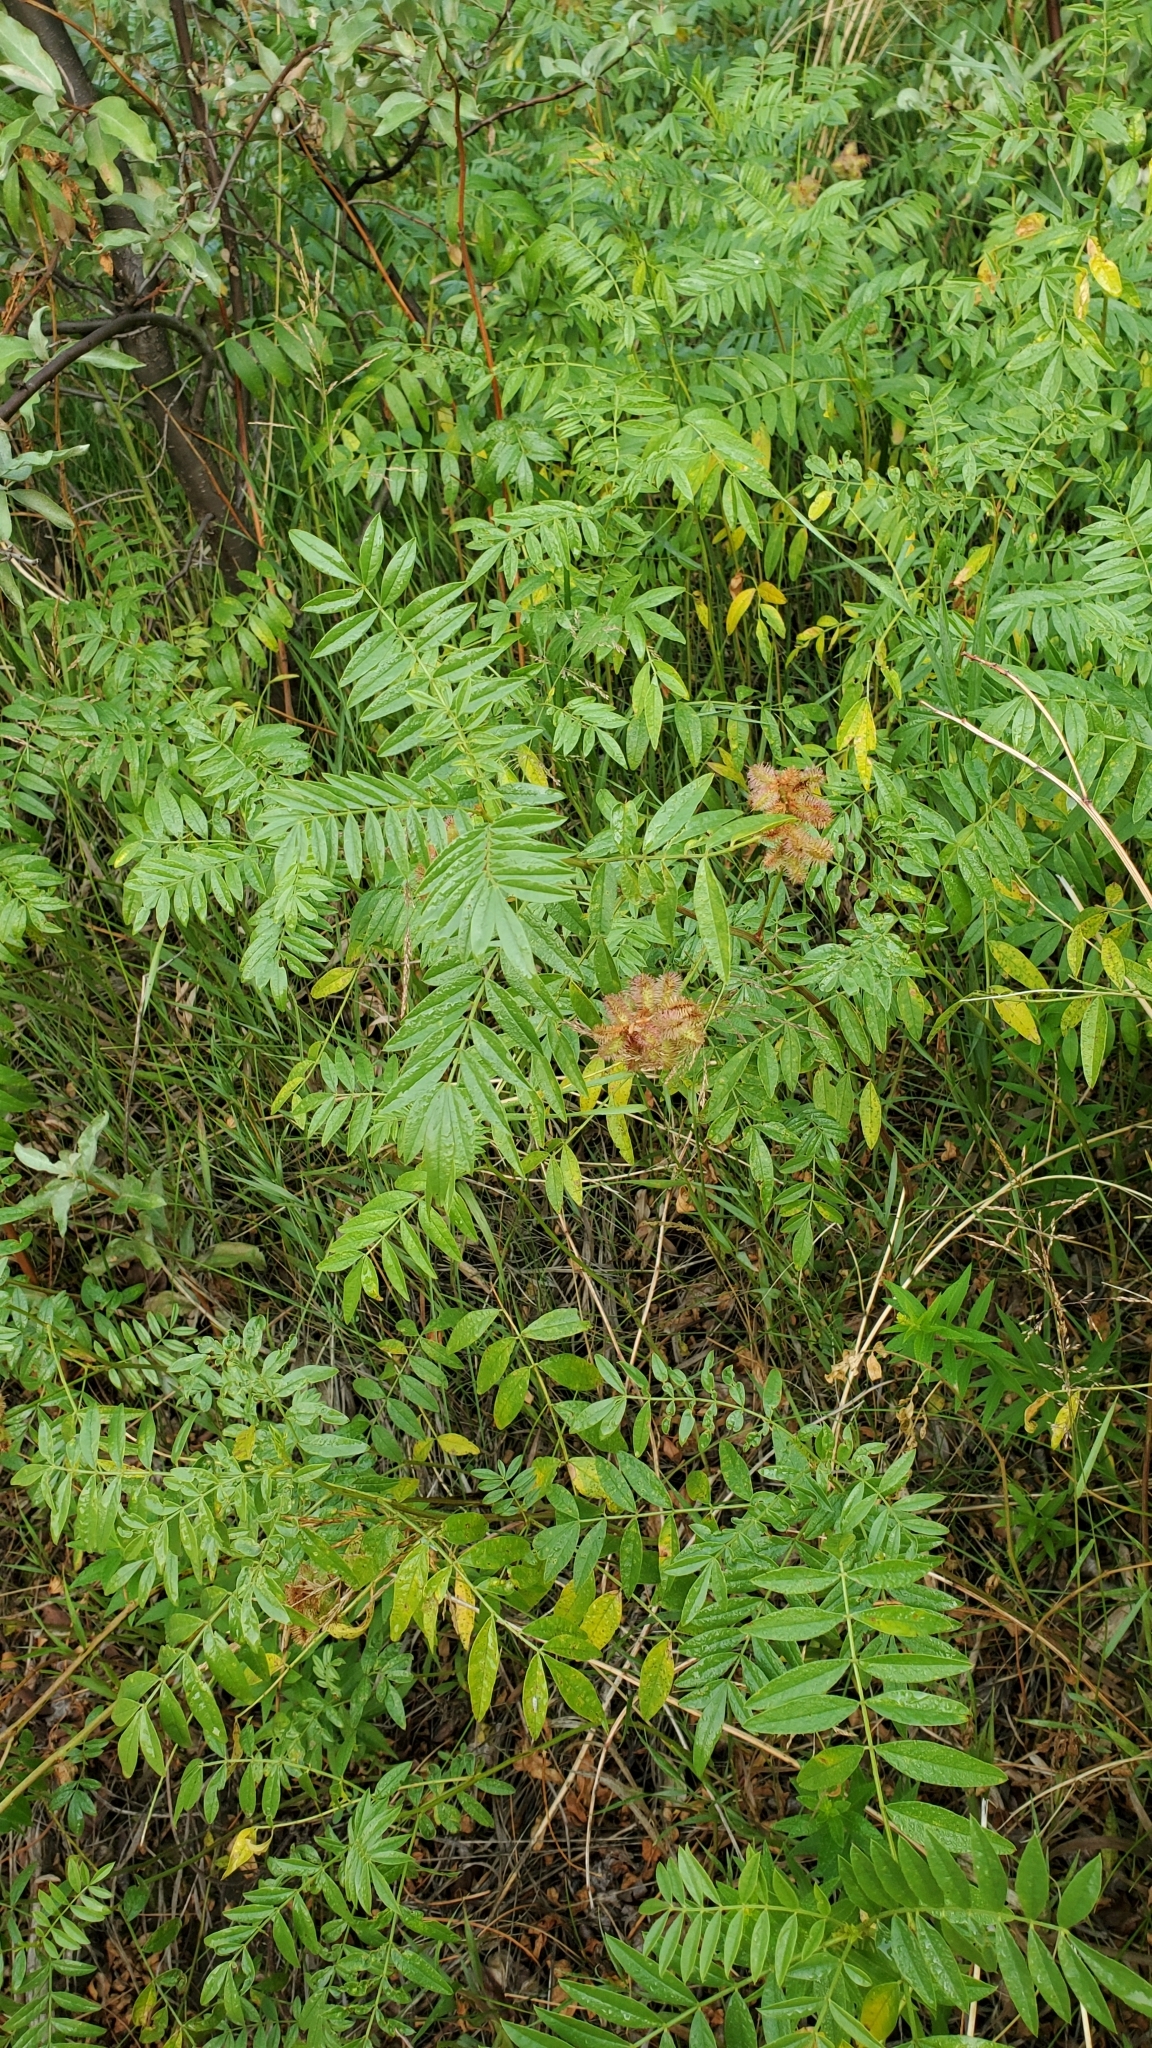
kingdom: Plantae
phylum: Tracheophyta
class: Magnoliopsida
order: Fabales
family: Fabaceae
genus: Glycyrrhiza
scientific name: Glycyrrhiza lepidota
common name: American liquorice
